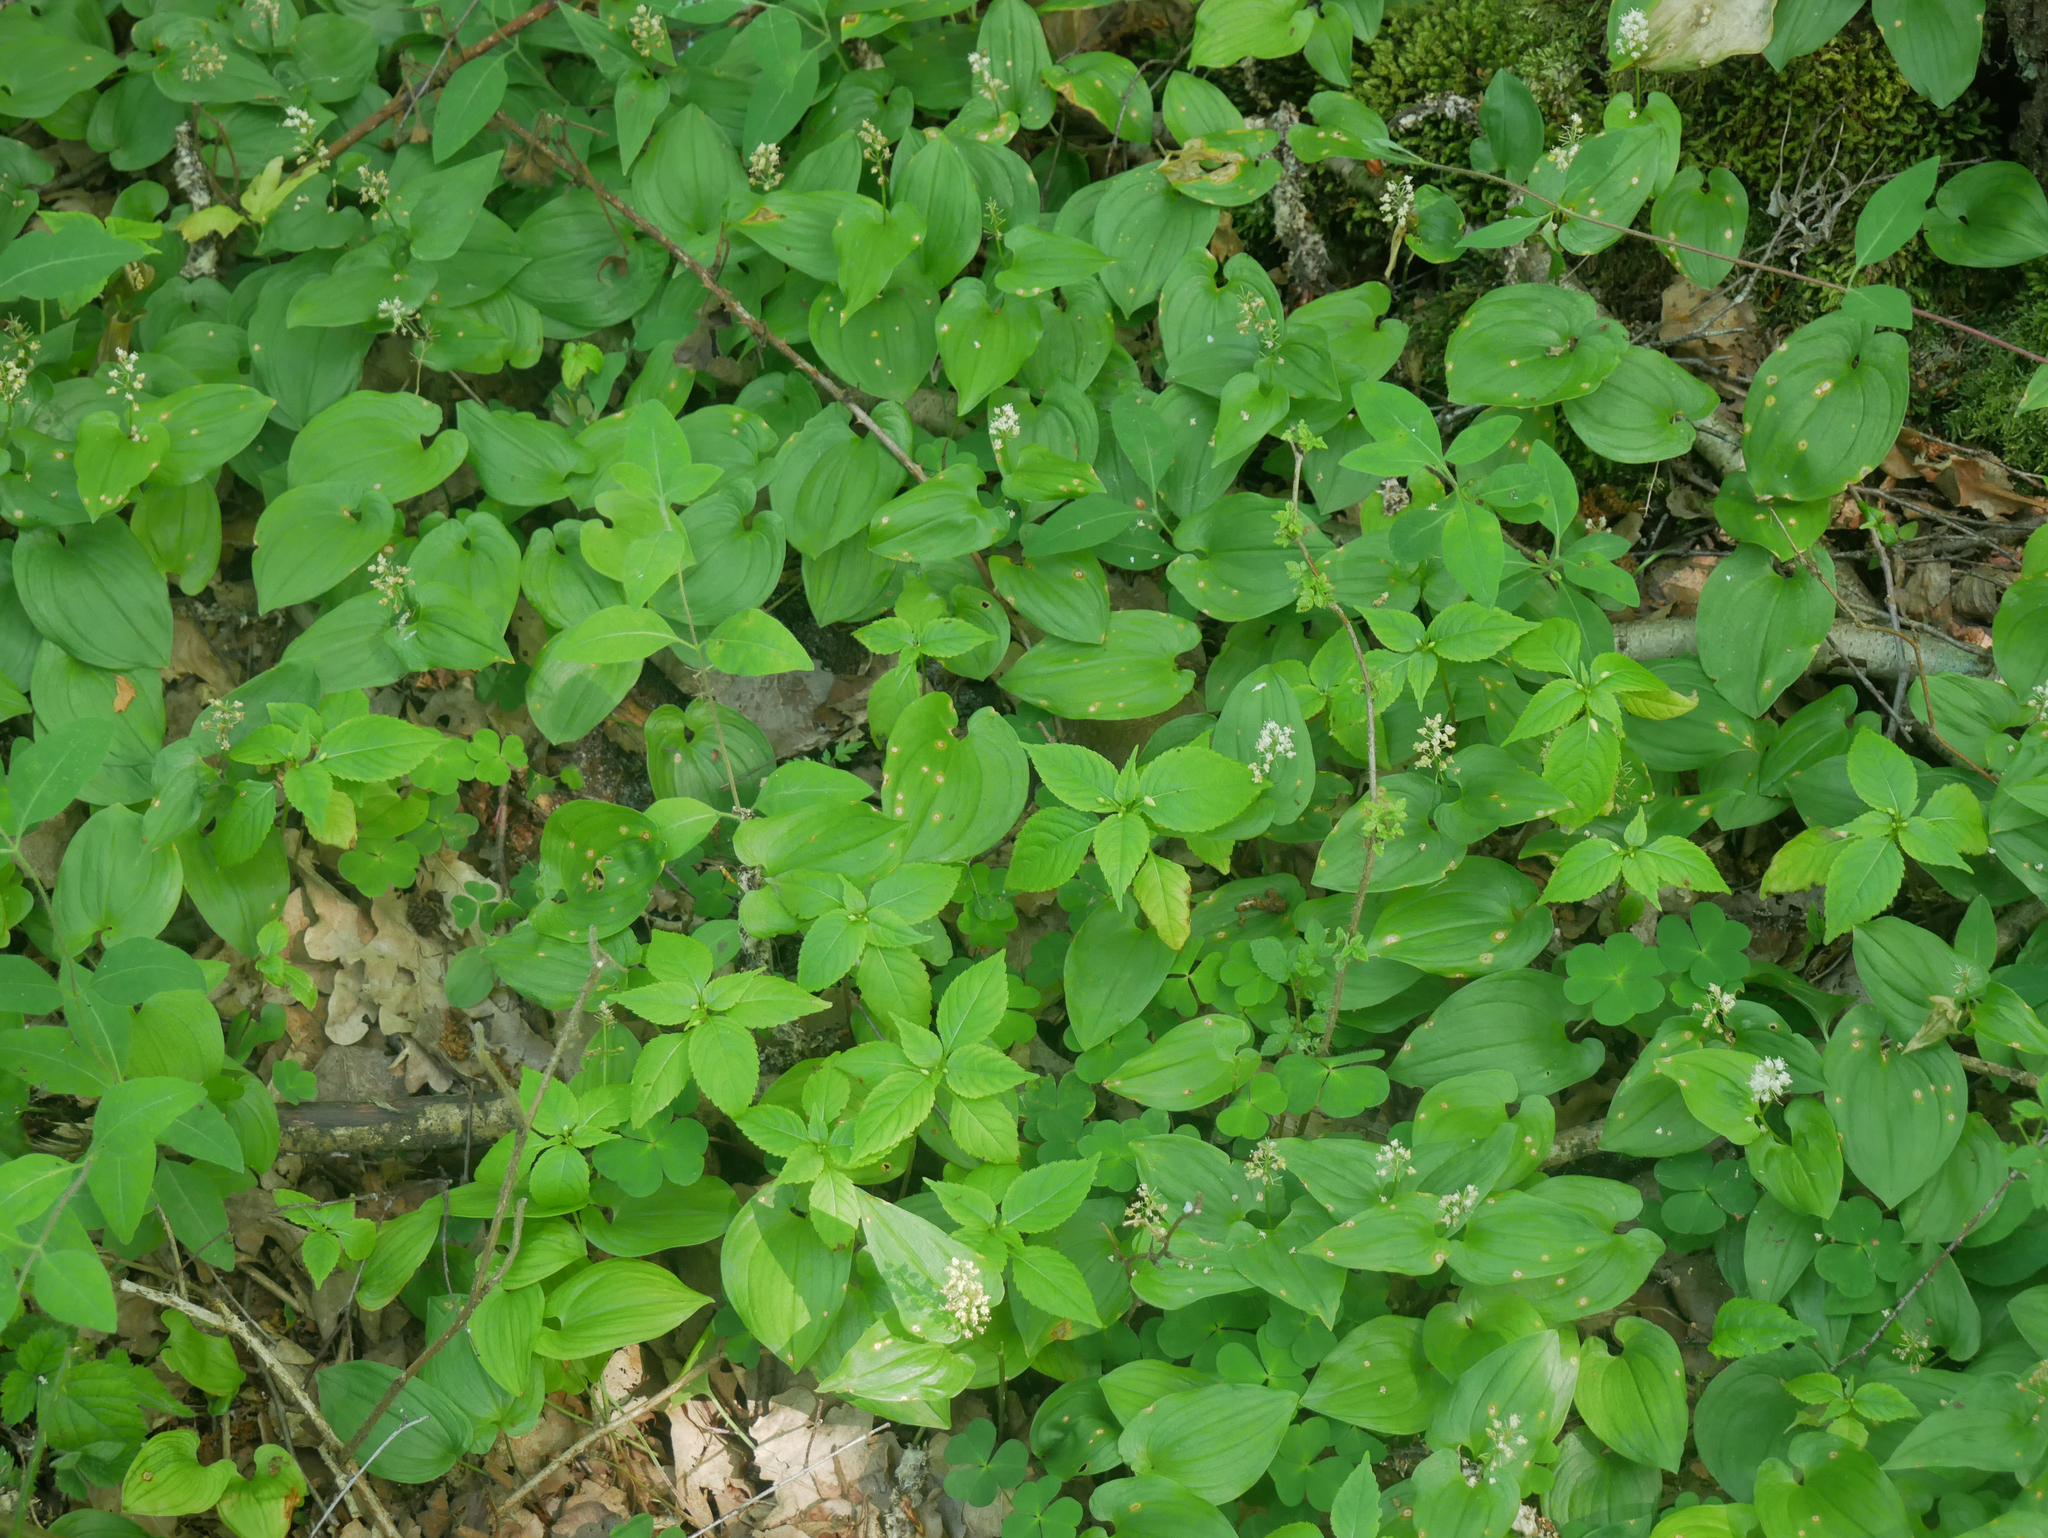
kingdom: Plantae
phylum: Tracheophyta
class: Liliopsida
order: Asparagales
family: Asparagaceae
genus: Maianthemum
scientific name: Maianthemum bifolium
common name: May lily
